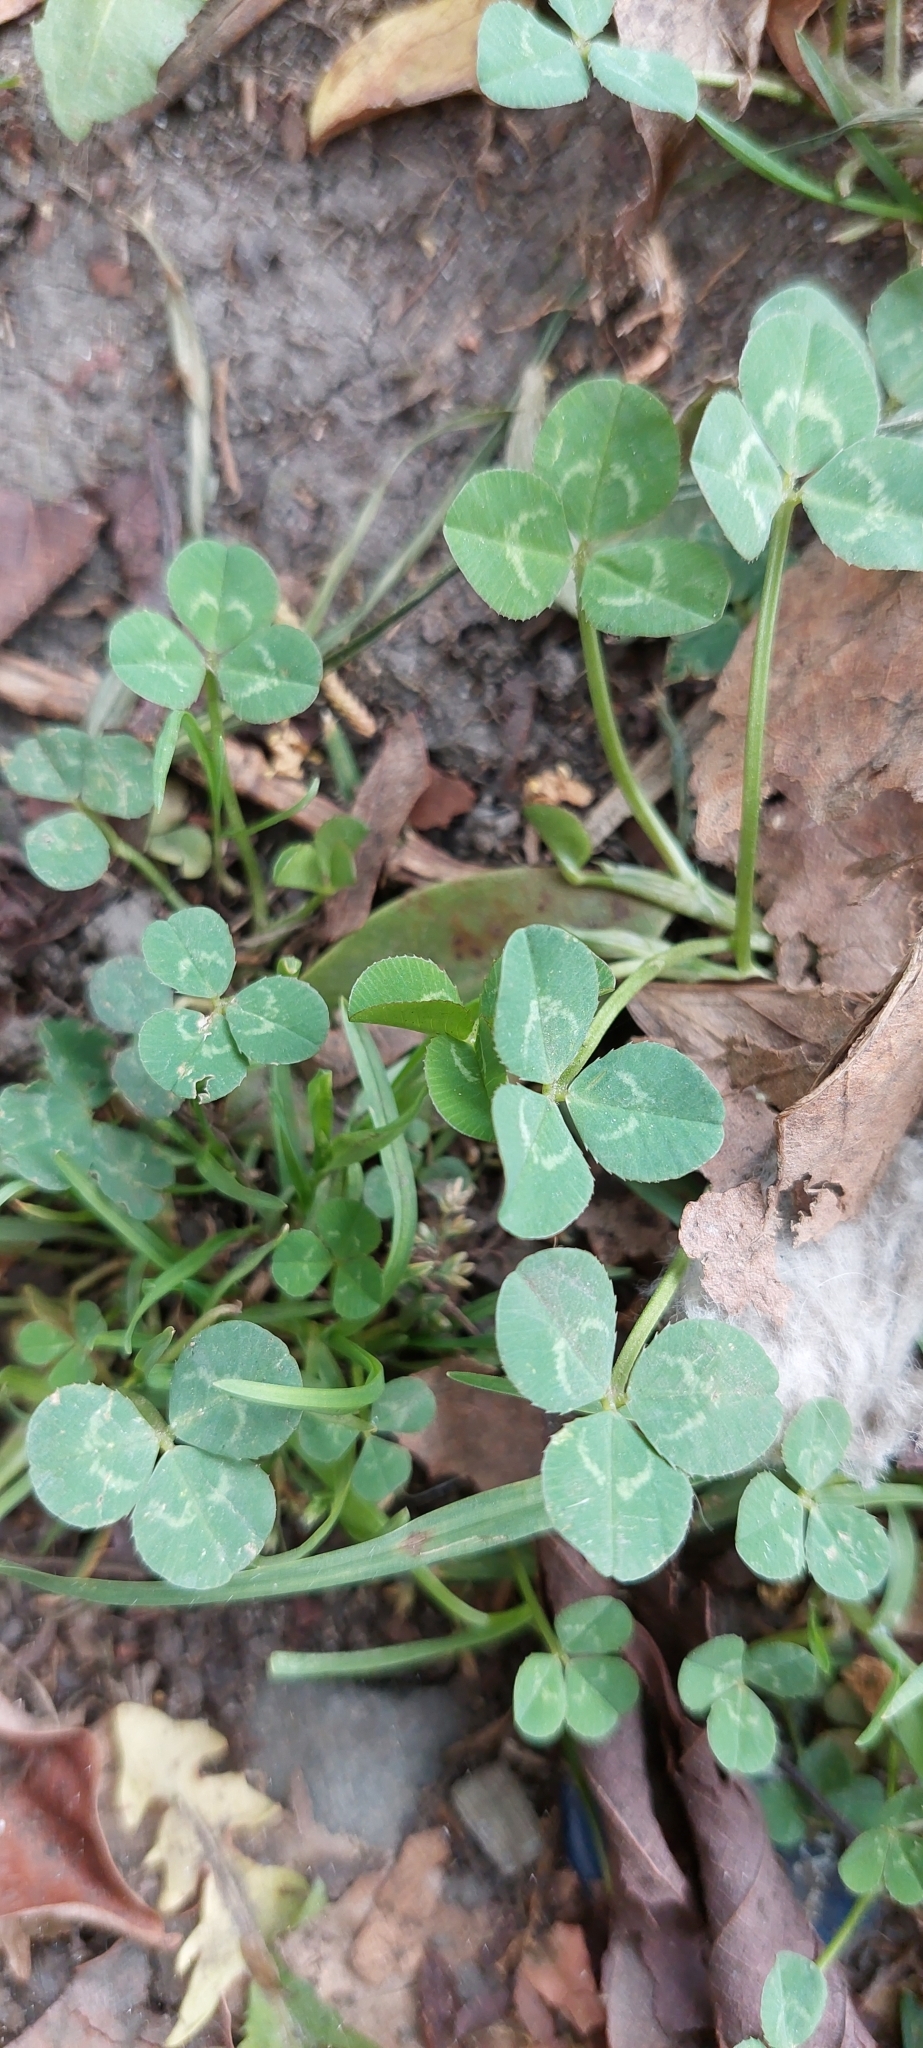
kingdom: Plantae
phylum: Tracheophyta
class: Magnoliopsida
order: Fabales
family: Fabaceae
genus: Trifolium
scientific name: Trifolium repens
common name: White clover
